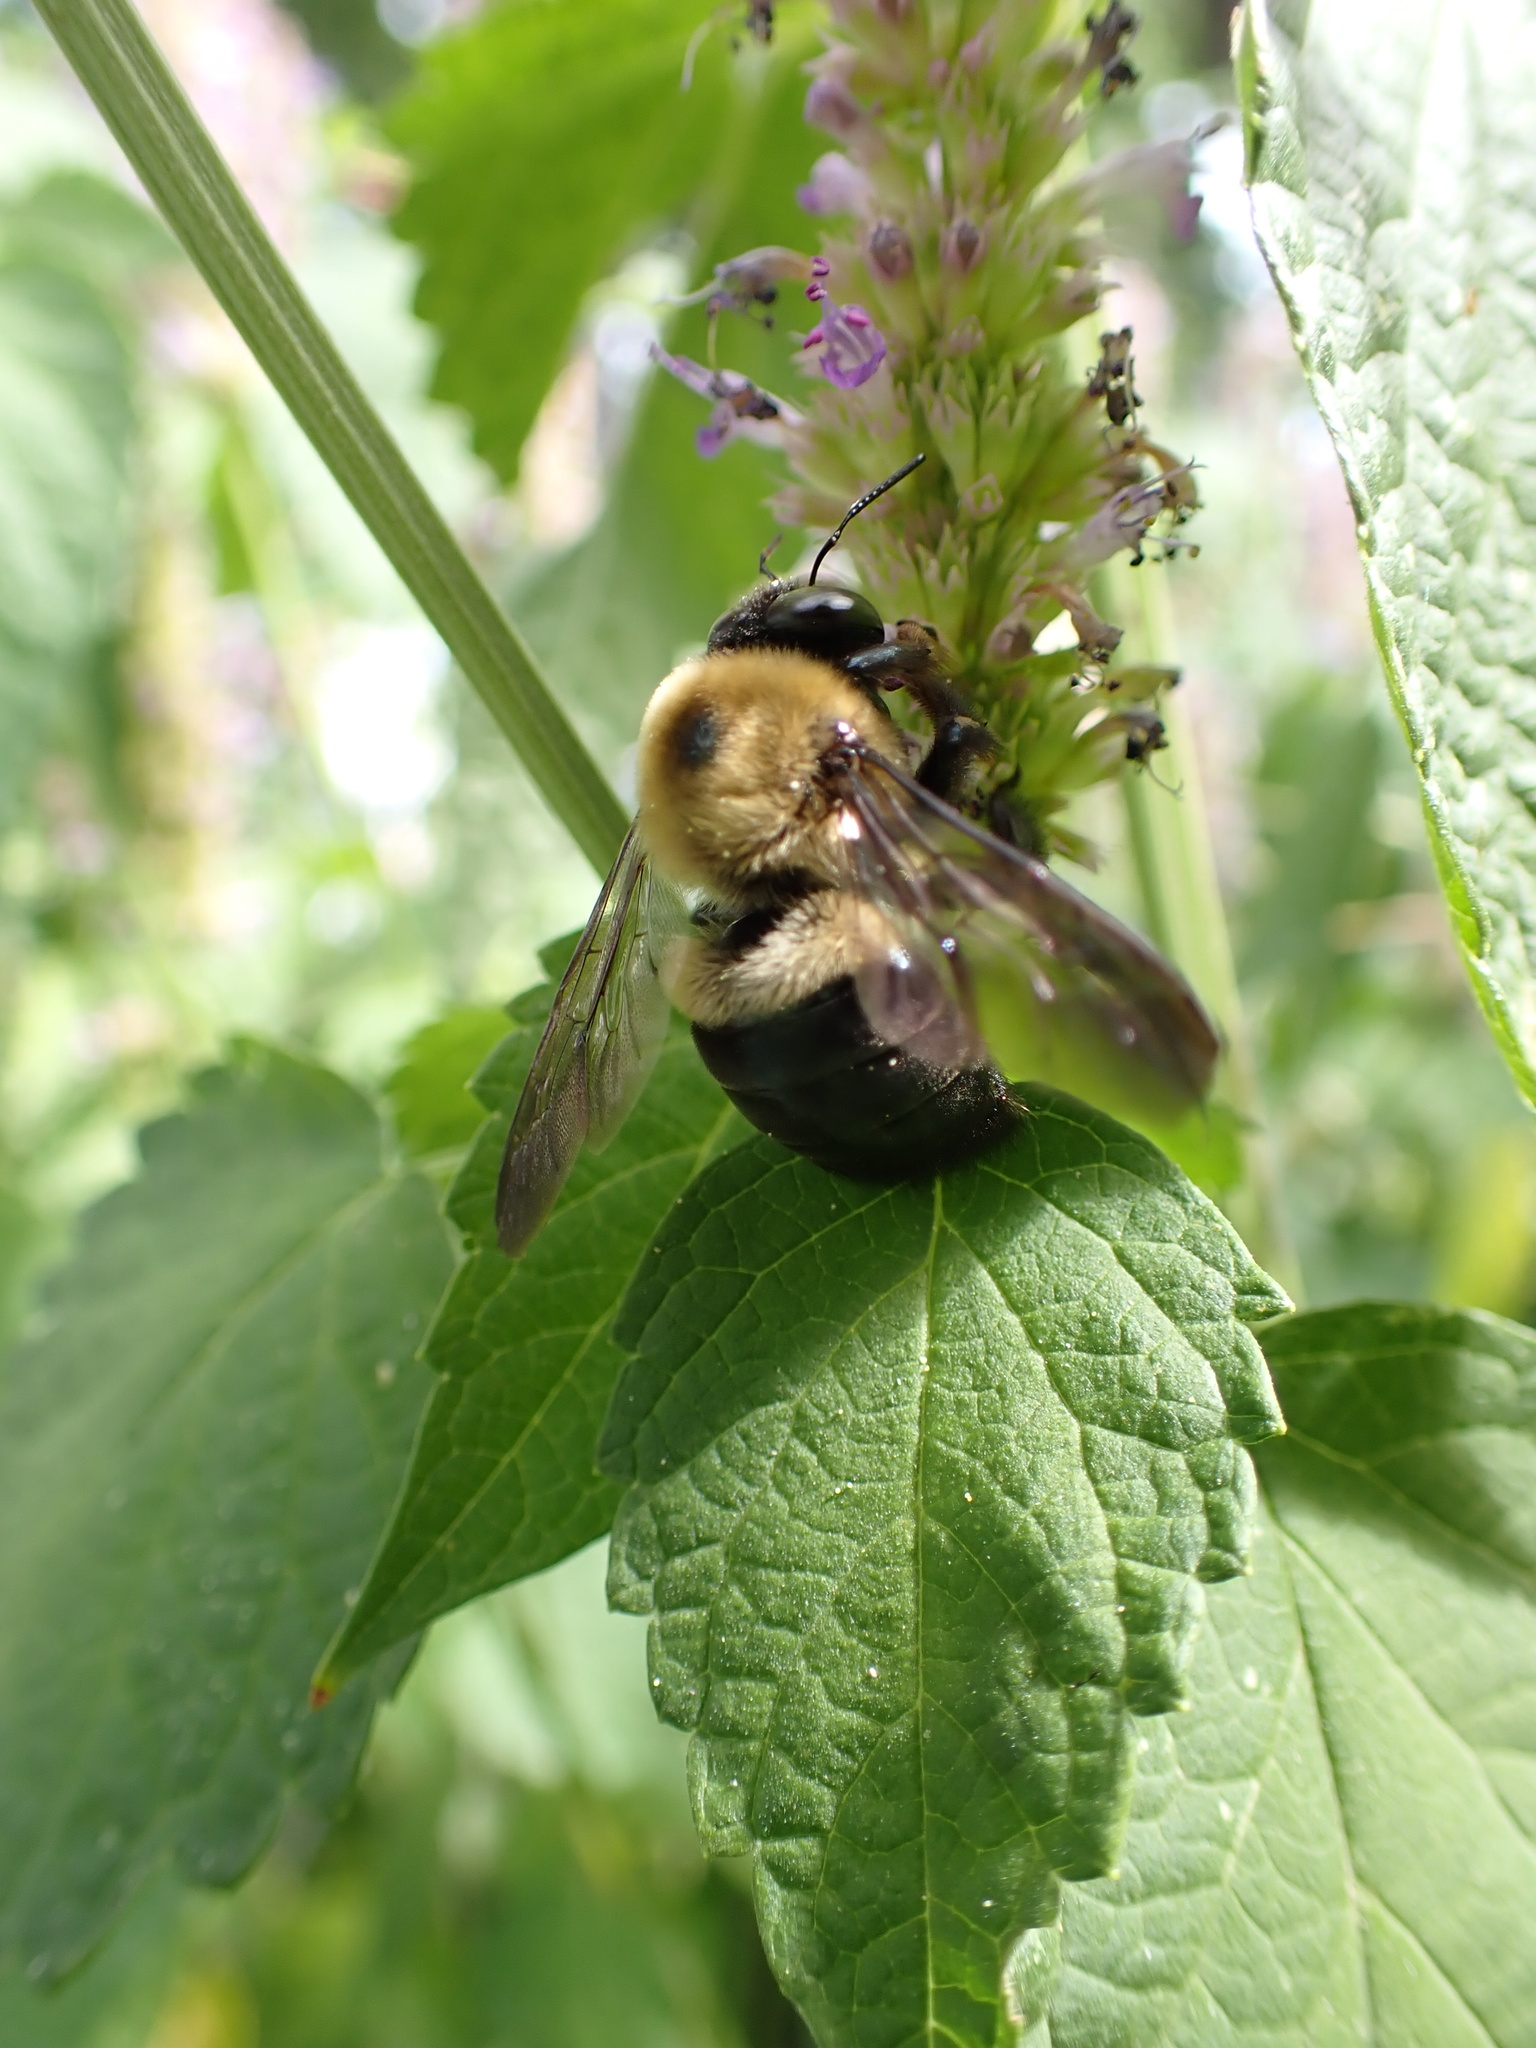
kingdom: Animalia
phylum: Arthropoda
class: Insecta
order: Hymenoptera
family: Apidae
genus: Xylocopa
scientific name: Xylocopa virginica
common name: Carpenter bee
